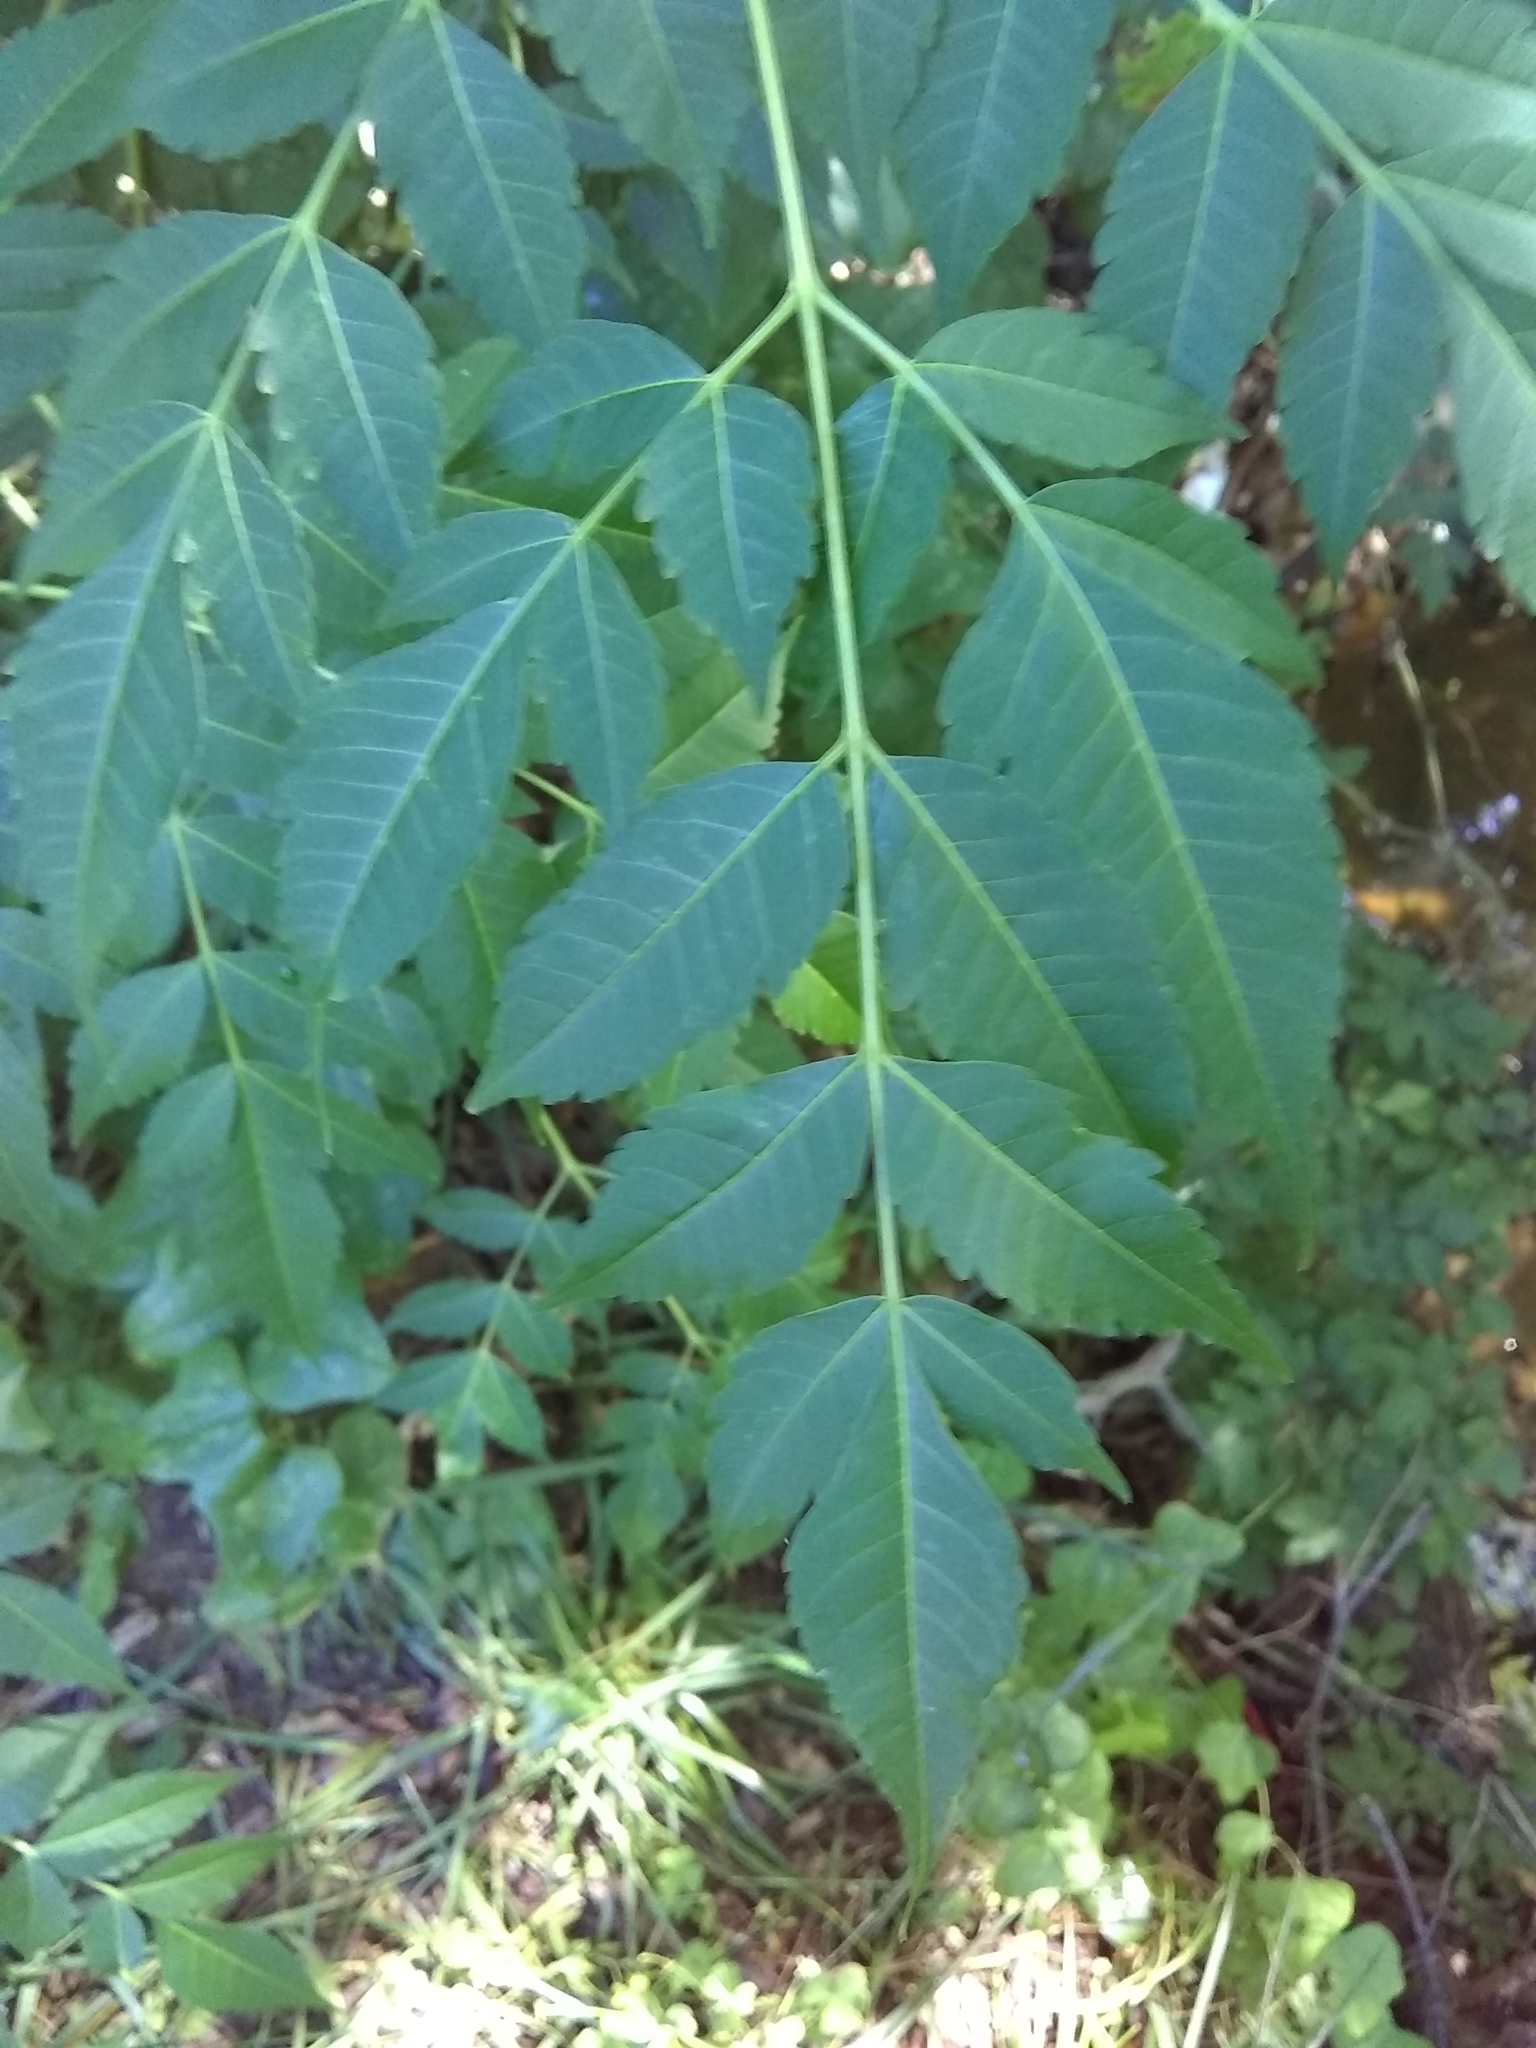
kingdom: Plantae
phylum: Tracheophyta
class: Magnoliopsida
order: Sapindales
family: Meliaceae
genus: Melia
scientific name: Melia azedarach
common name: Chinaberrytree
